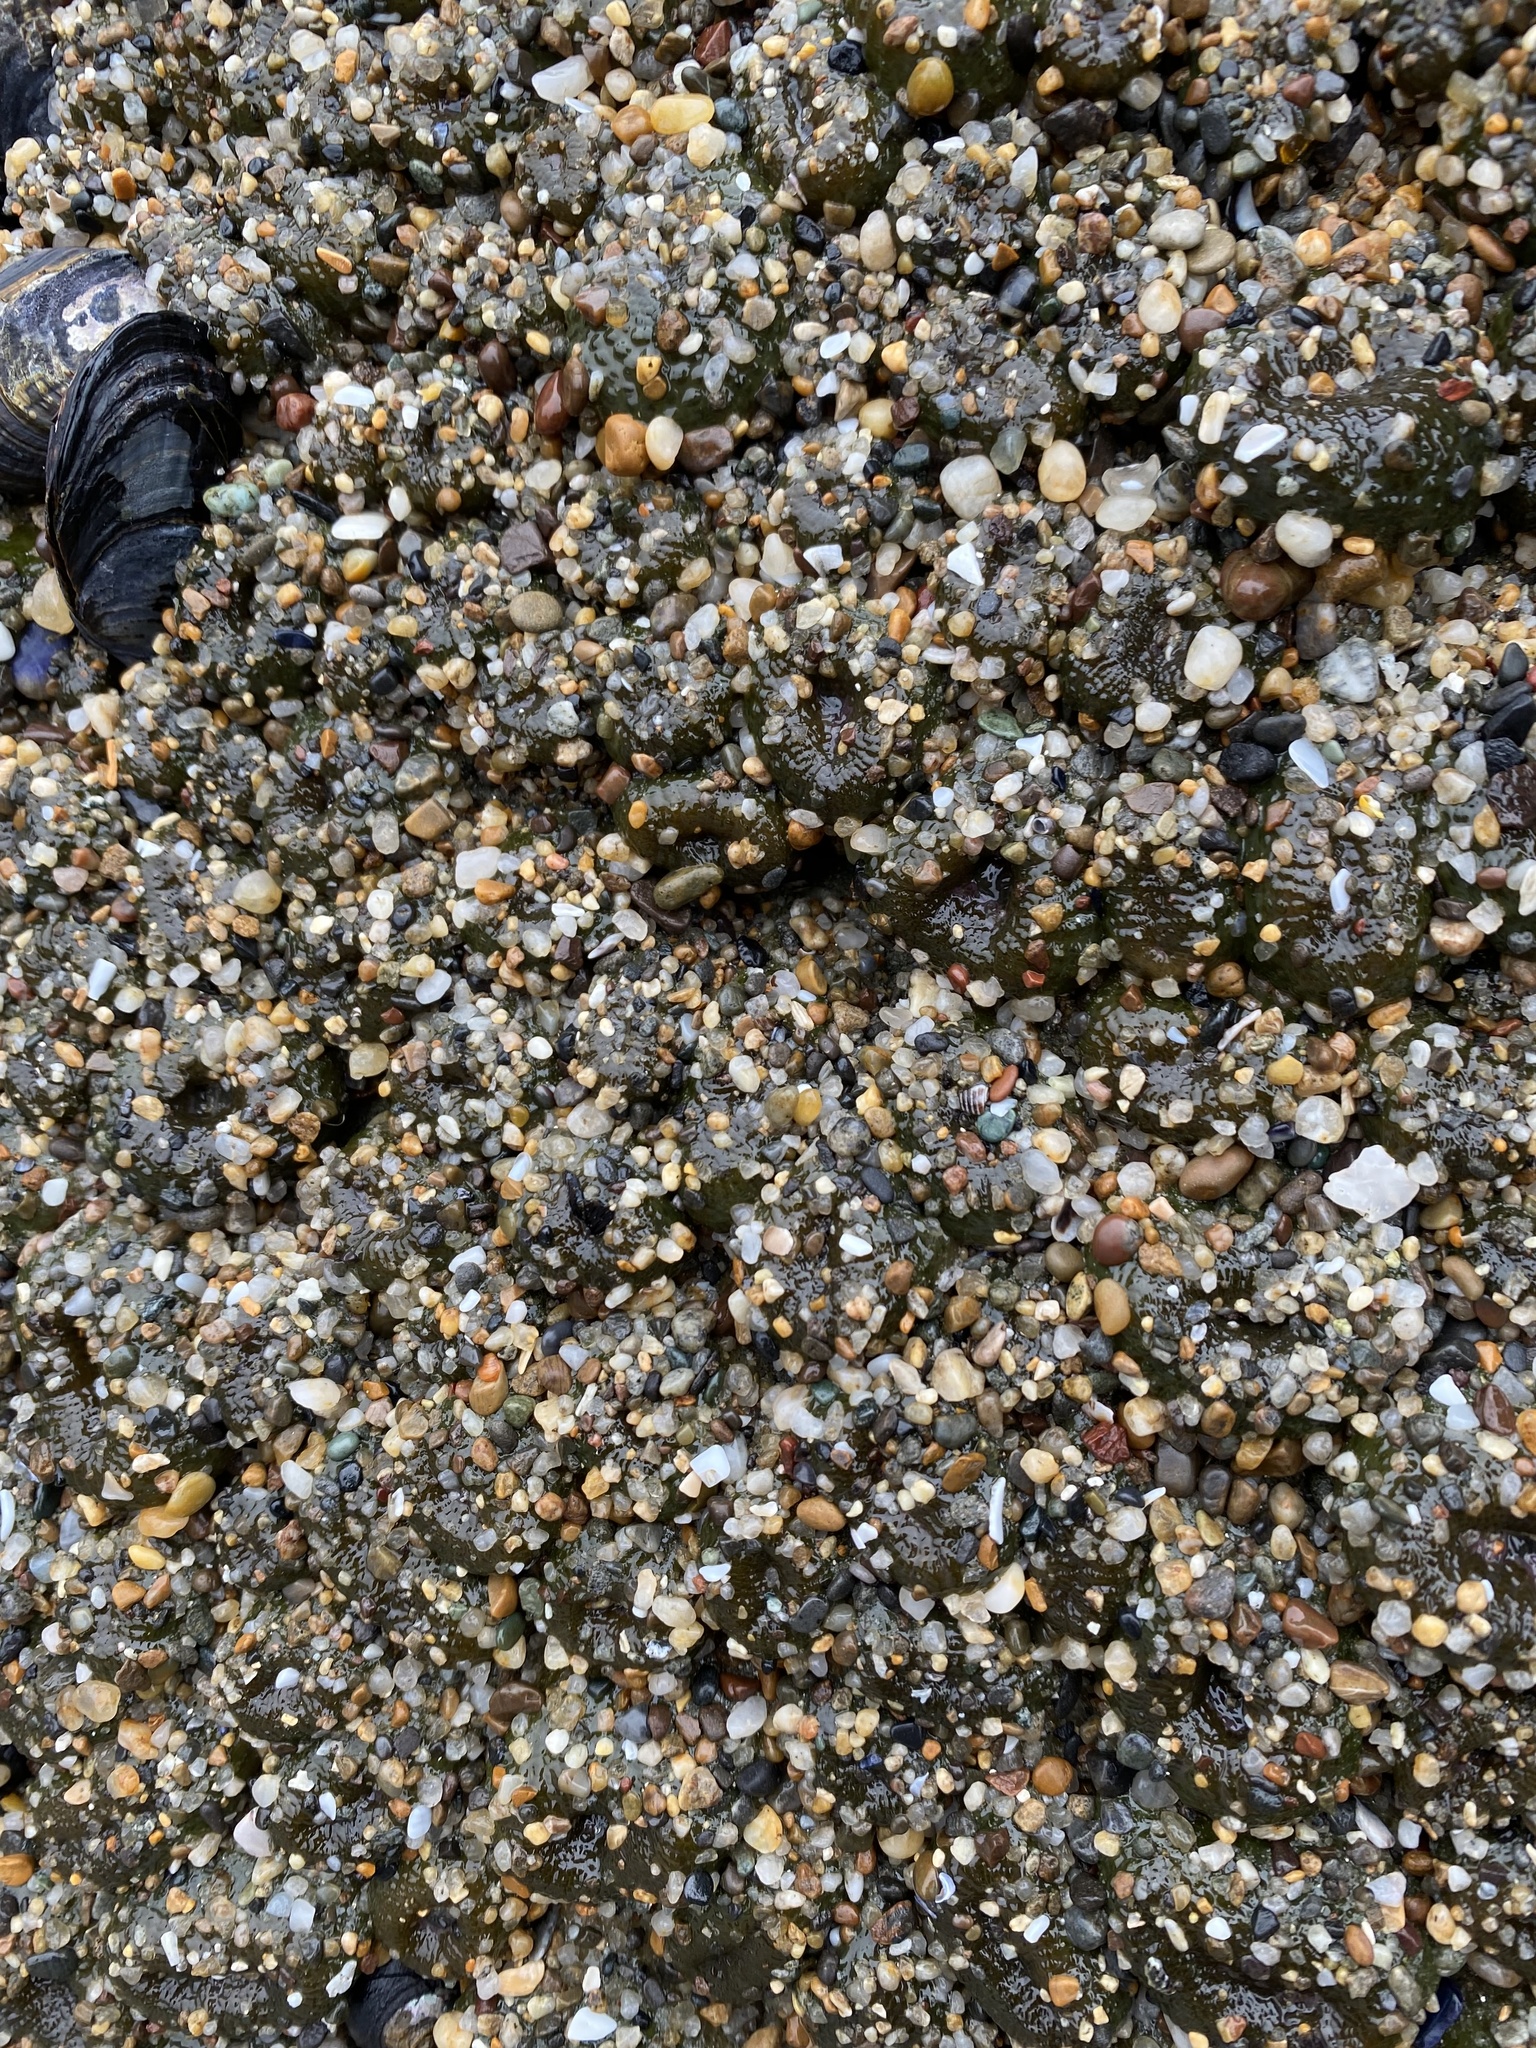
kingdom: Animalia
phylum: Cnidaria
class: Anthozoa
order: Actiniaria
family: Actiniidae
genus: Anthopleura
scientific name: Anthopleura elegantissima
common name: Clonal anemone
